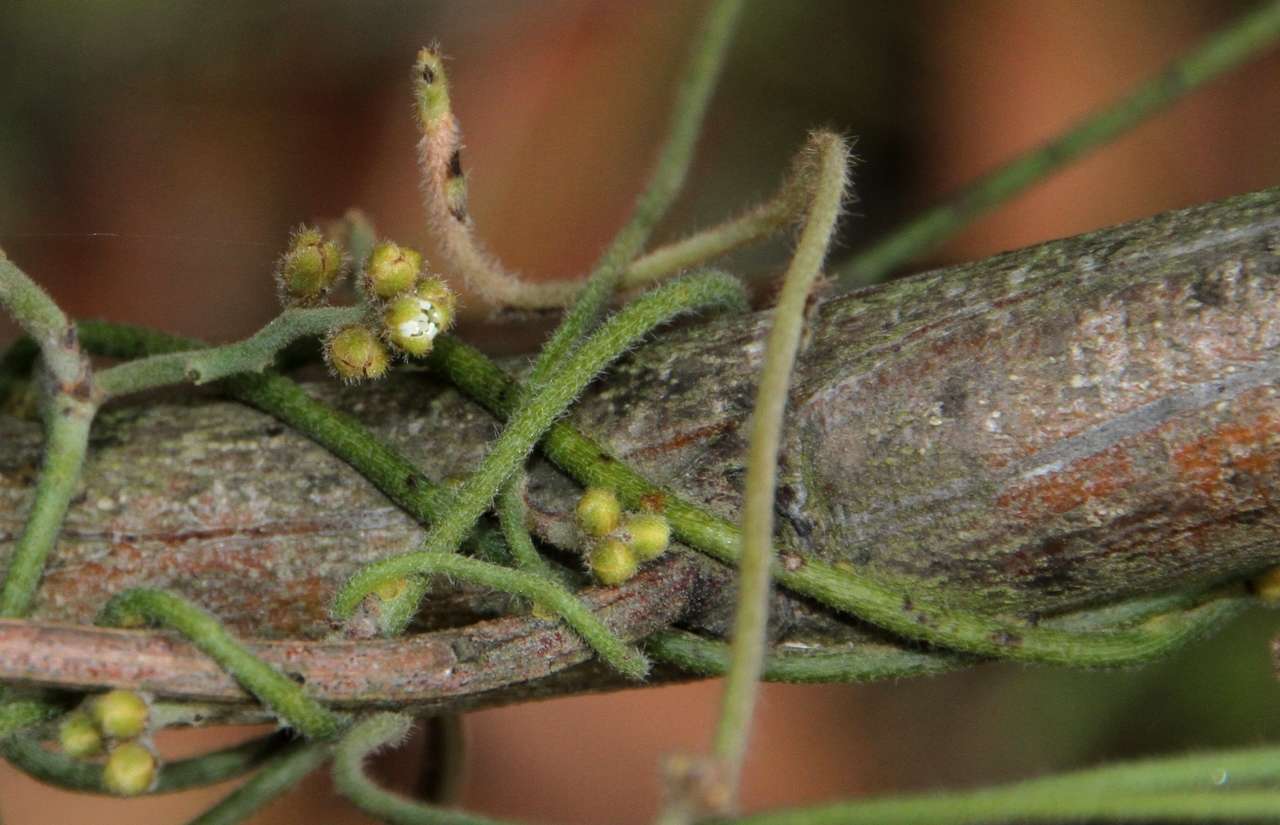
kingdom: Plantae
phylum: Tracheophyta
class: Magnoliopsida
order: Laurales
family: Lauraceae
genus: Cassytha
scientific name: Cassytha pubescens
